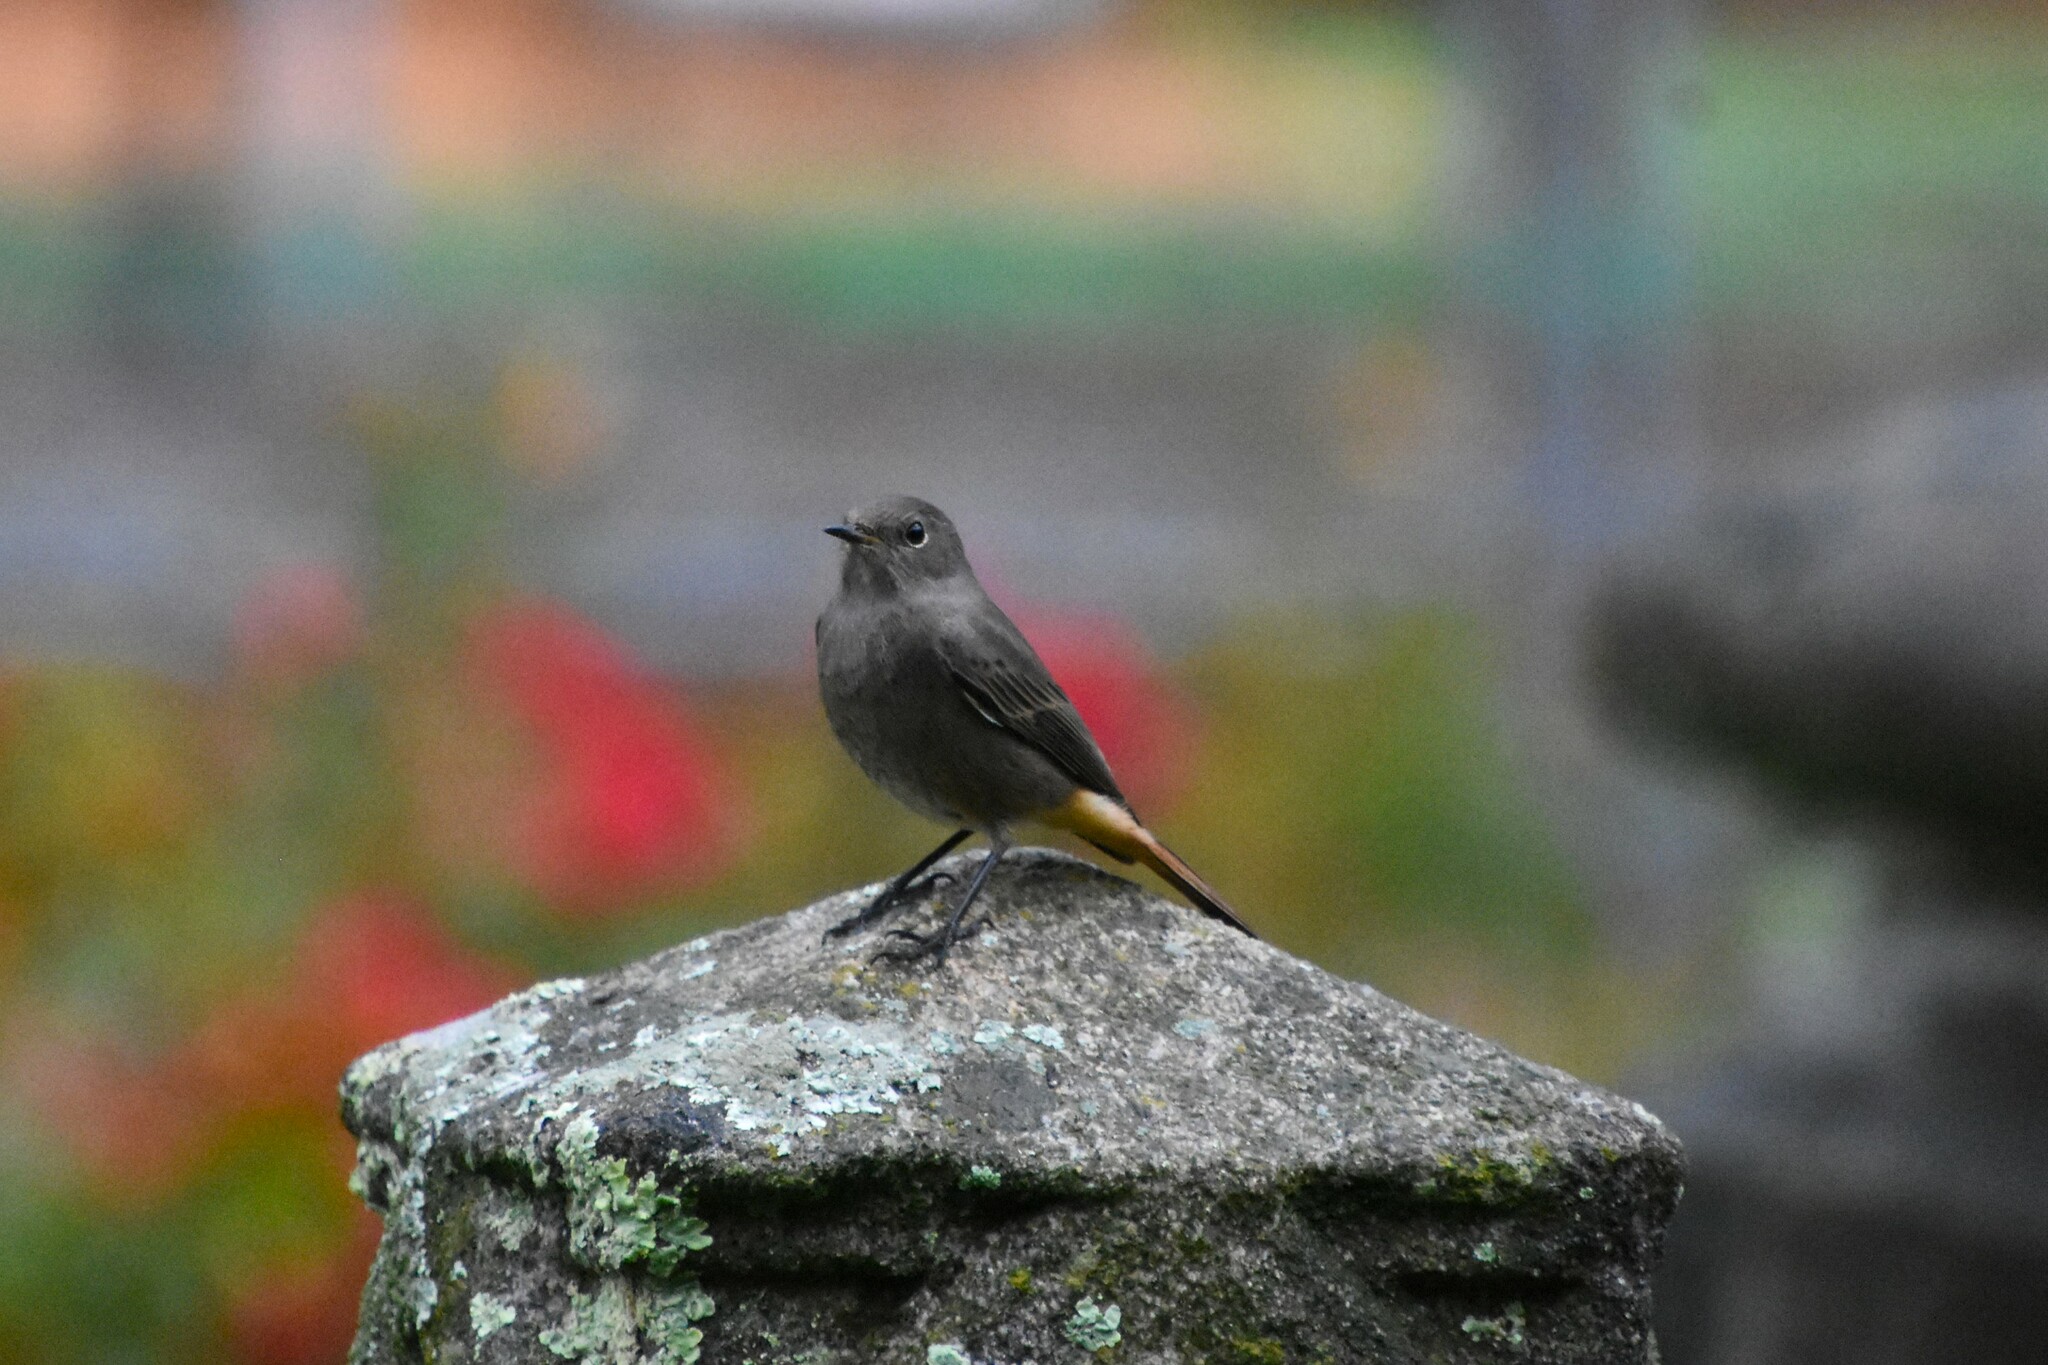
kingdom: Animalia
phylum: Chordata
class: Aves
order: Passeriformes
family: Muscicapidae
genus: Phoenicurus
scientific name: Phoenicurus ochruros
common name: Black redstart
